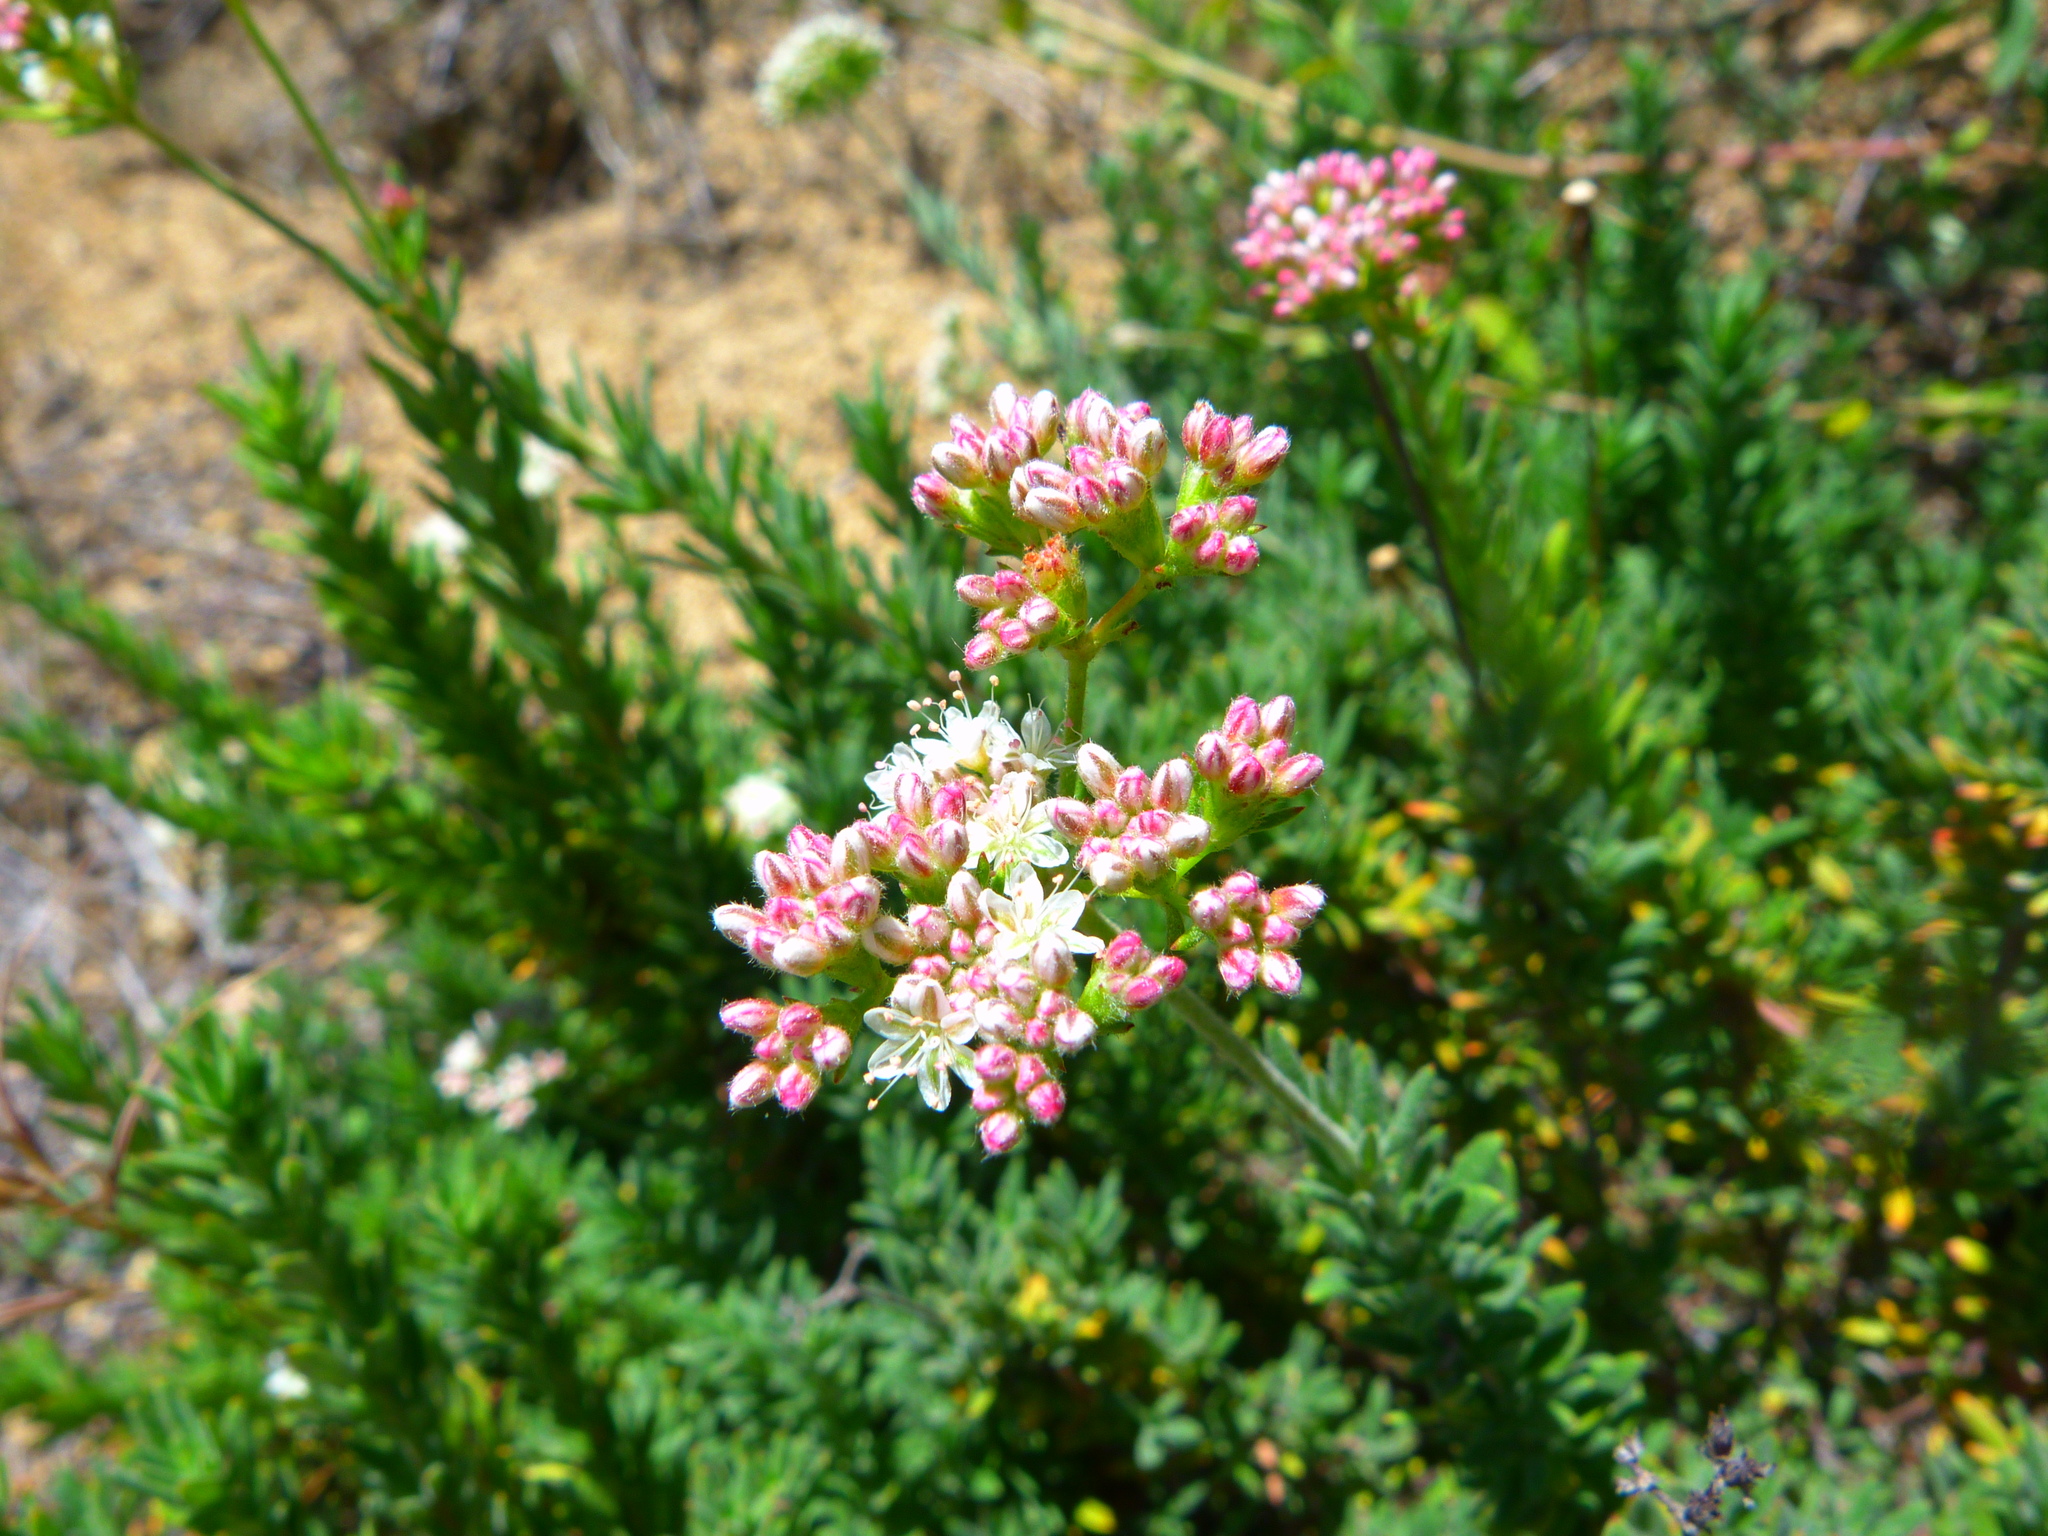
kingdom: Plantae
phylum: Tracheophyta
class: Magnoliopsida
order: Caryophyllales
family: Polygonaceae
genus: Eriogonum
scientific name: Eriogonum fasciculatum
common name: California wild buckwheat
